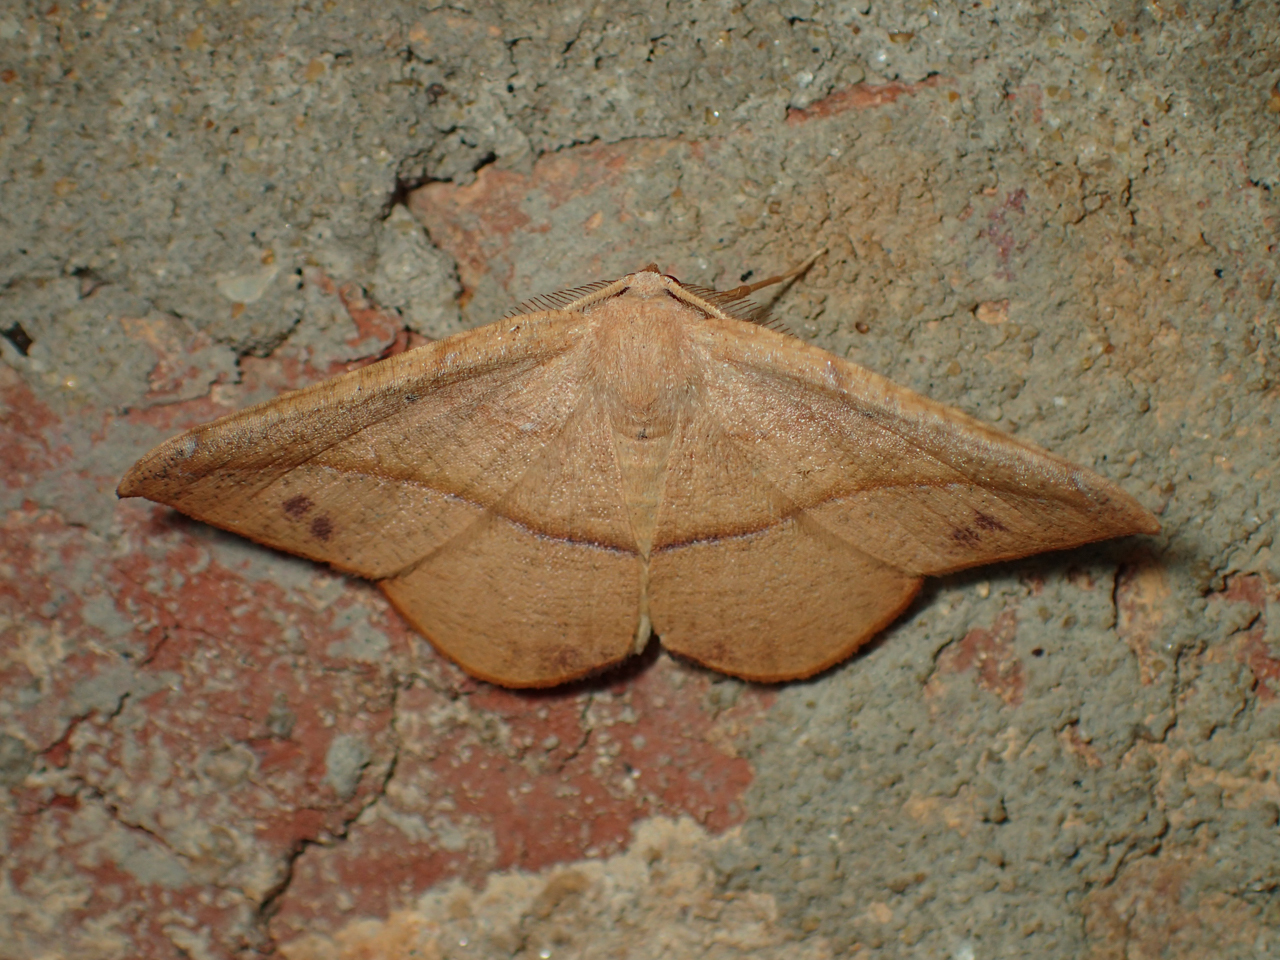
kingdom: Animalia
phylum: Arthropoda
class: Insecta
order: Lepidoptera
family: Geometridae
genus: Patalene
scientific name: Patalene olyzonaria
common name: Juniper geometer moth
